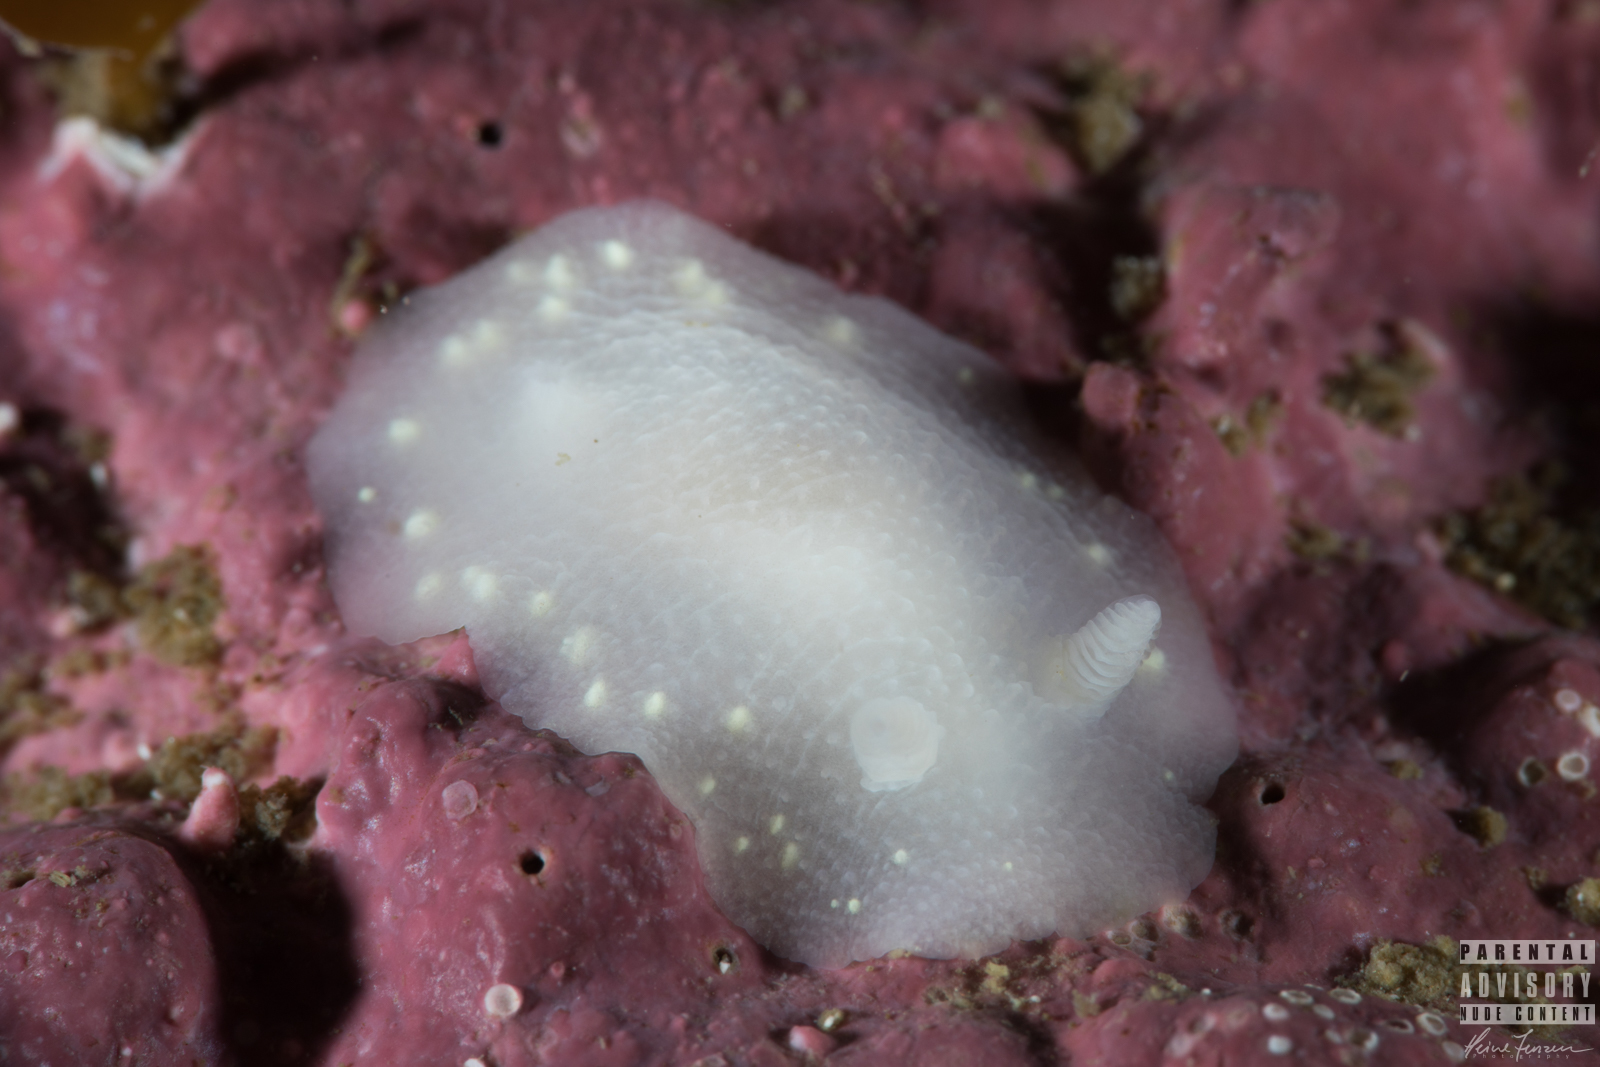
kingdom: Animalia
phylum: Mollusca
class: Gastropoda
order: Nudibranchia
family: Cadlinidae
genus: Cadlina
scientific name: Cadlina laevis
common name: White atlantic cadlina
